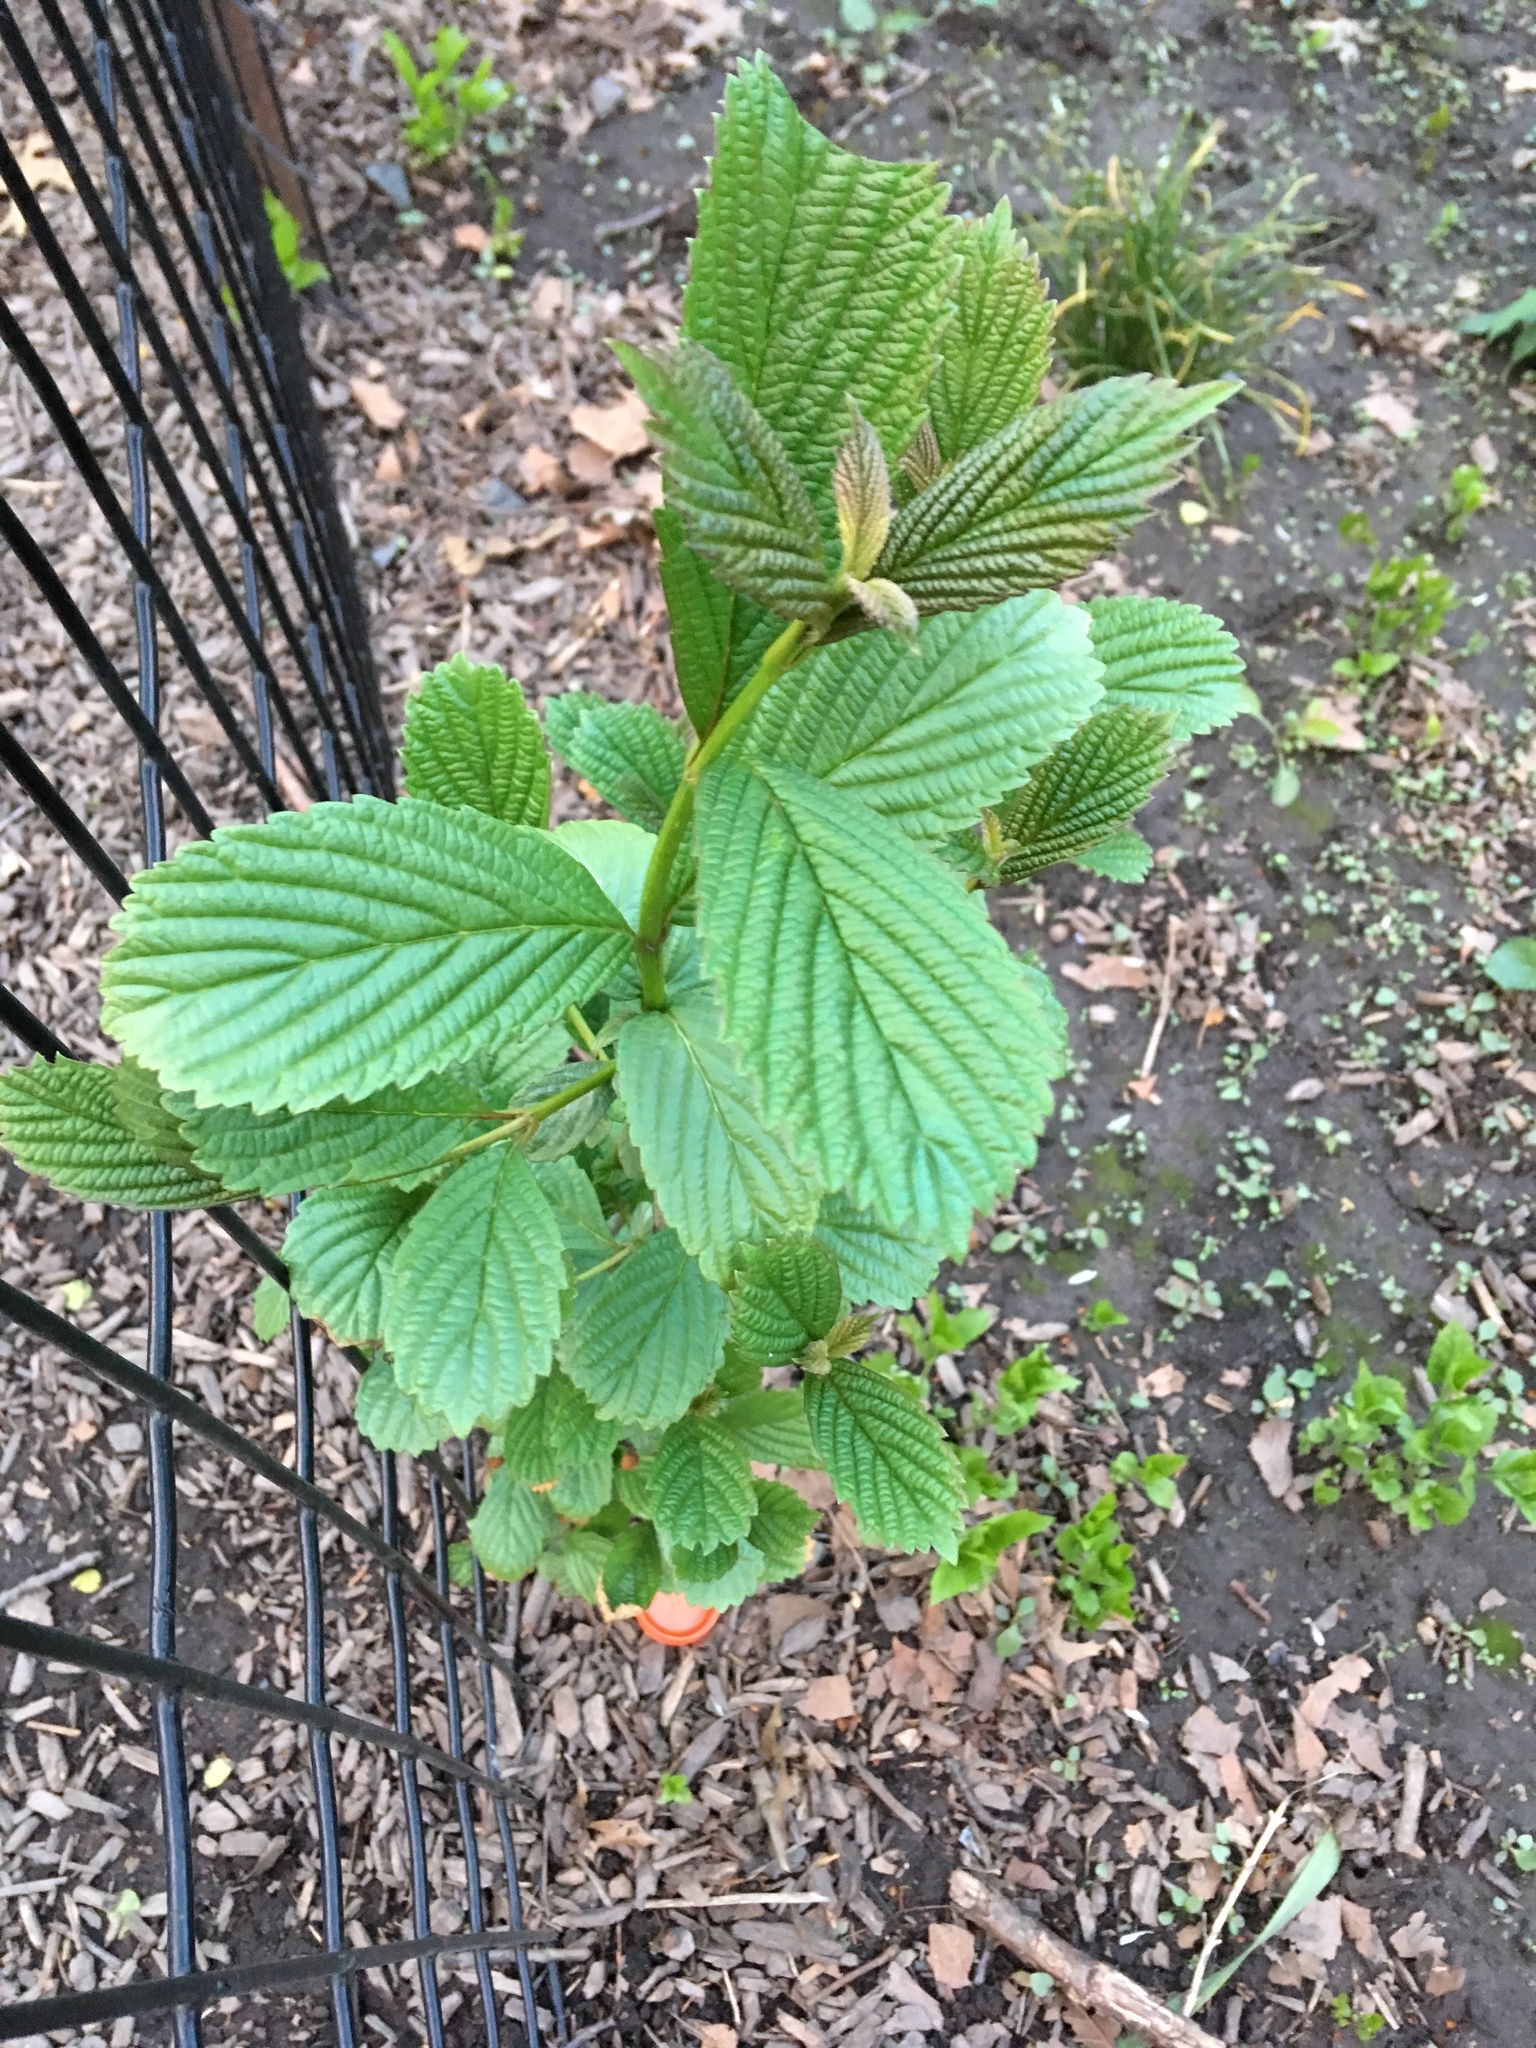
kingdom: Plantae
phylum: Tracheophyta
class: Magnoliopsida
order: Dipsacales
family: Viburnaceae
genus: Viburnum
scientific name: Viburnum sieboldii
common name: Siebold's arrowwood
